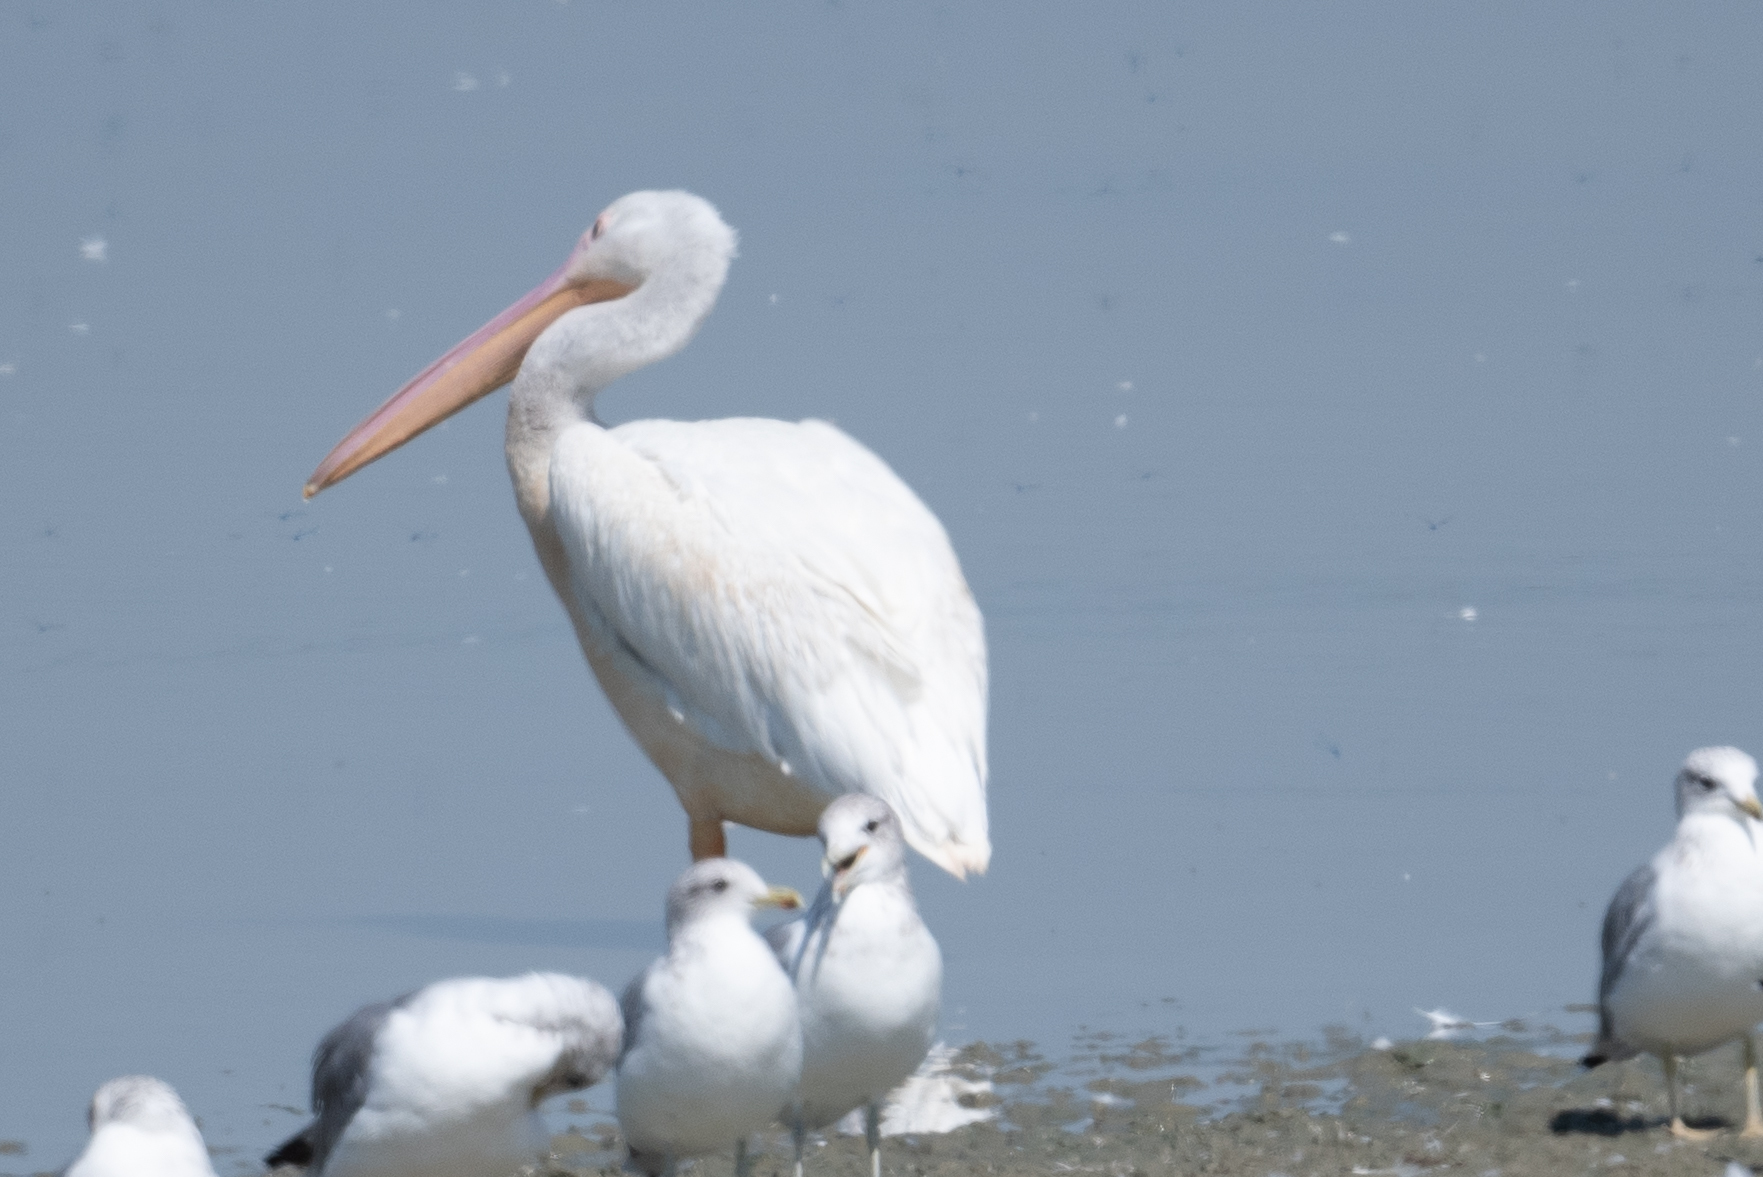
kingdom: Animalia
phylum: Chordata
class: Aves
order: Pelecaniformes
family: Pelecanidae
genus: Pelecanus
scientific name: Pelecanus erythrorhynchos
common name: American white pelican
